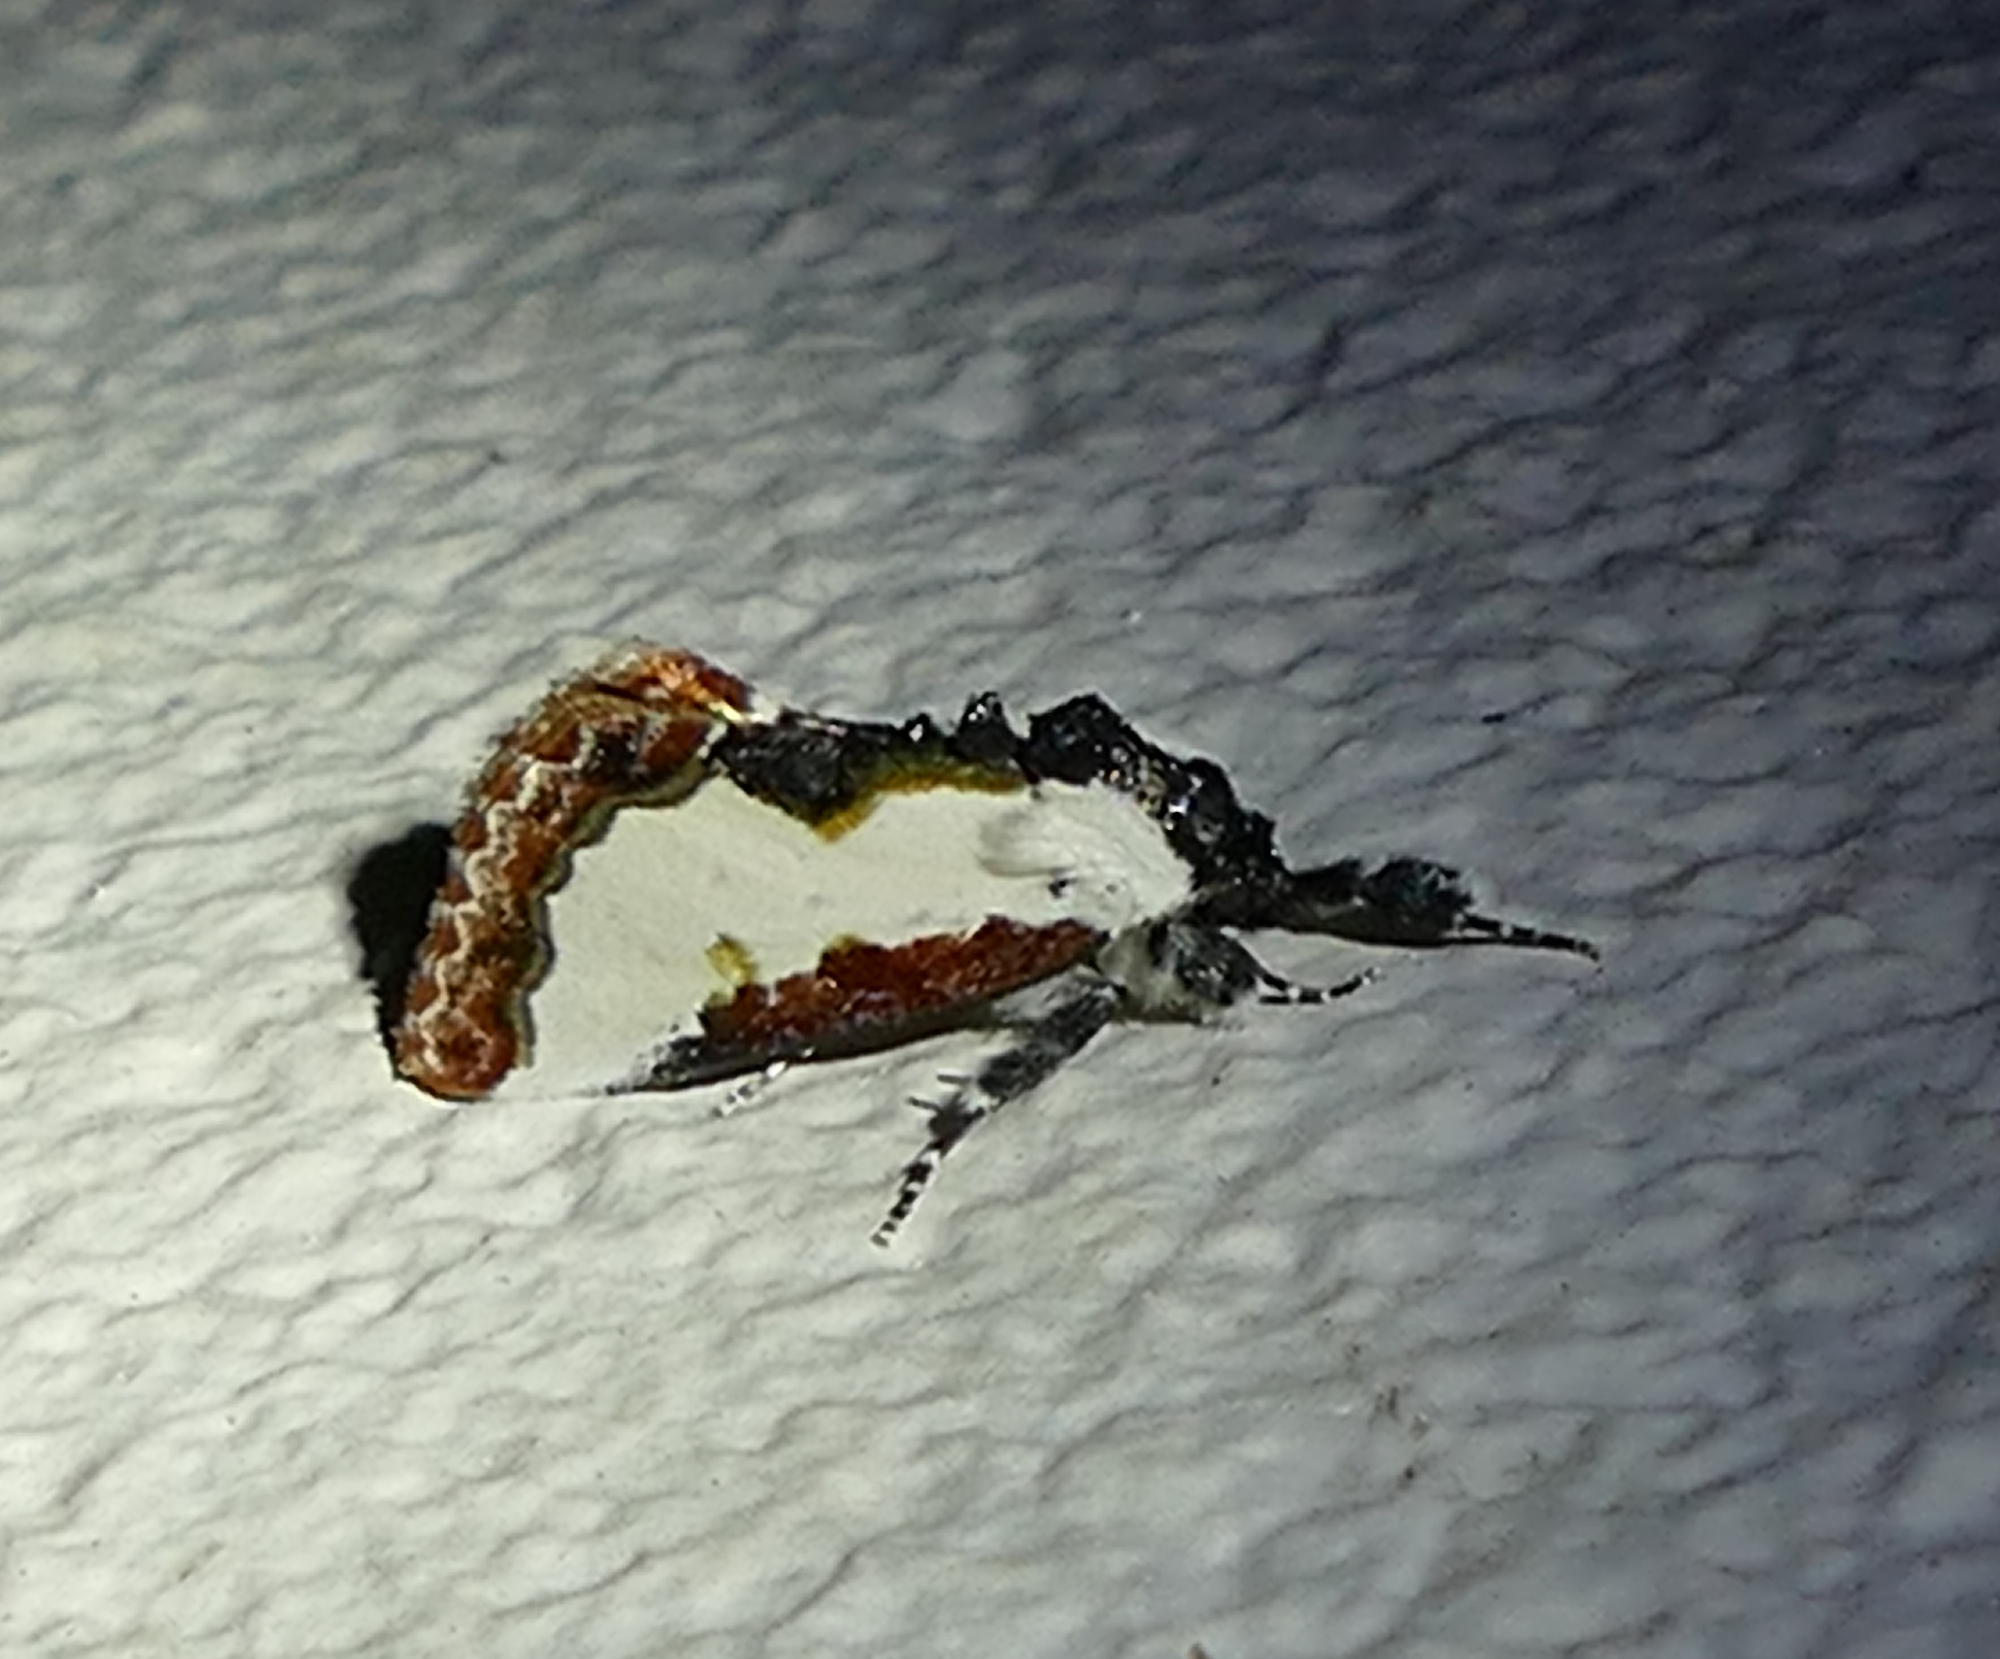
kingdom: Animalia
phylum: Arthropoda
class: Insecta
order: Lepidoptera
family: Noctuidae
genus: Eudryas
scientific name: Eudryas unio
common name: Pearly wood-nymph
